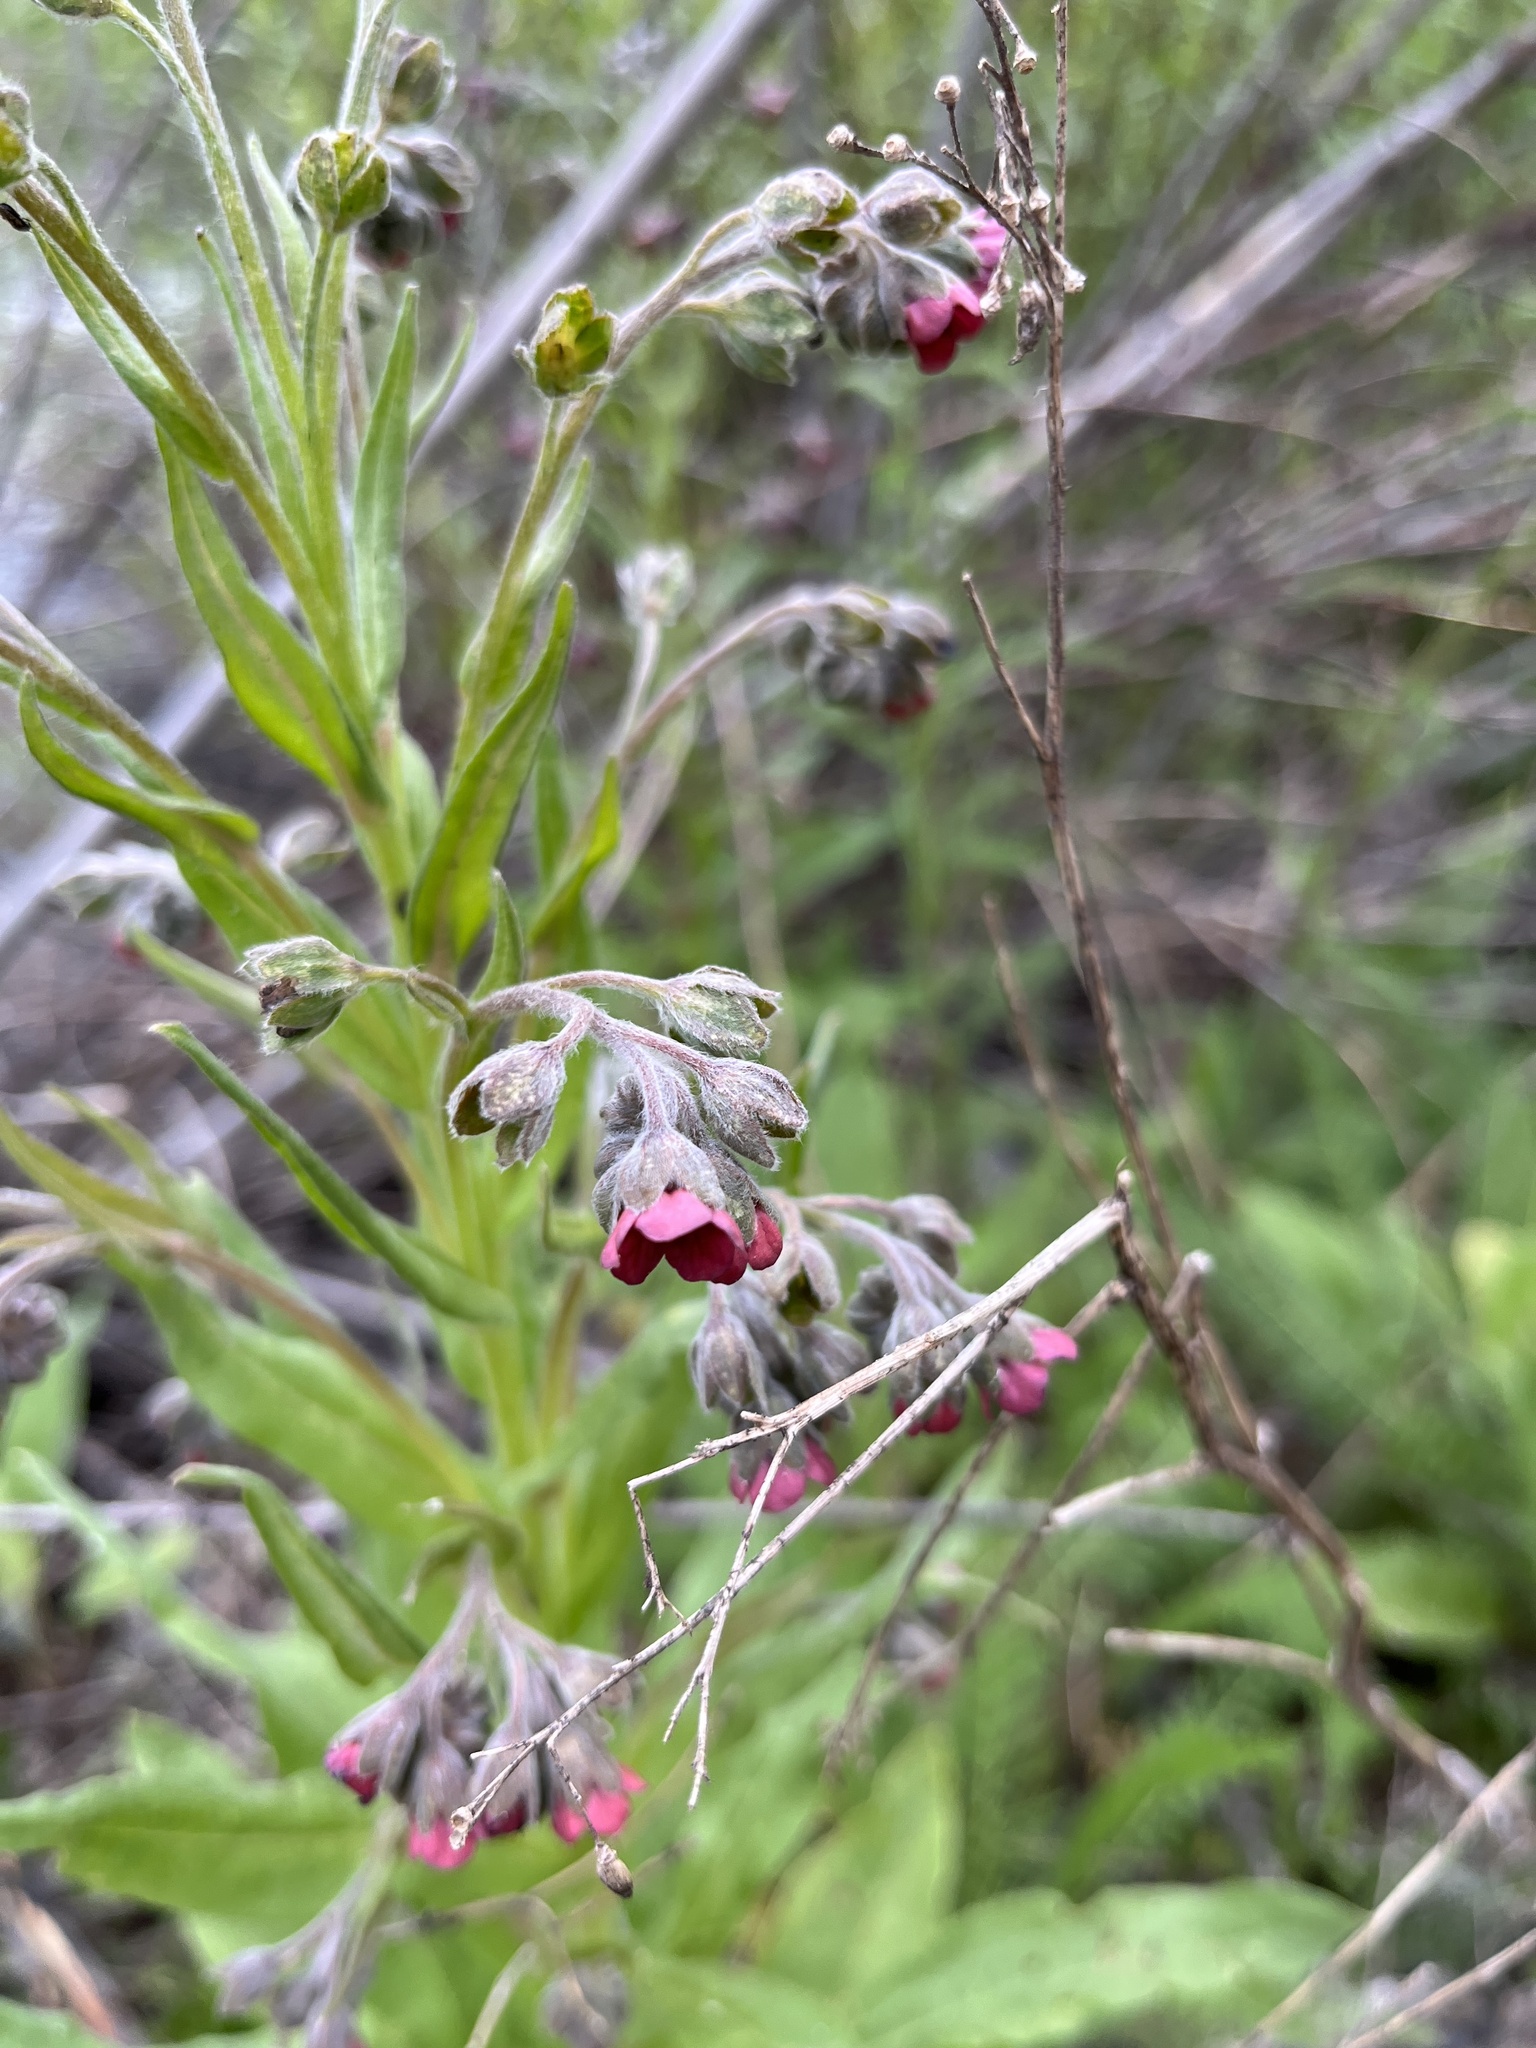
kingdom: Plantae
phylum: Tracheophyta
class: Magnoliopsida
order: Boraginales
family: Boraginaceae
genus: Cynoglossum
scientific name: Cynoglossum officinale
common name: Hound's-tongue
